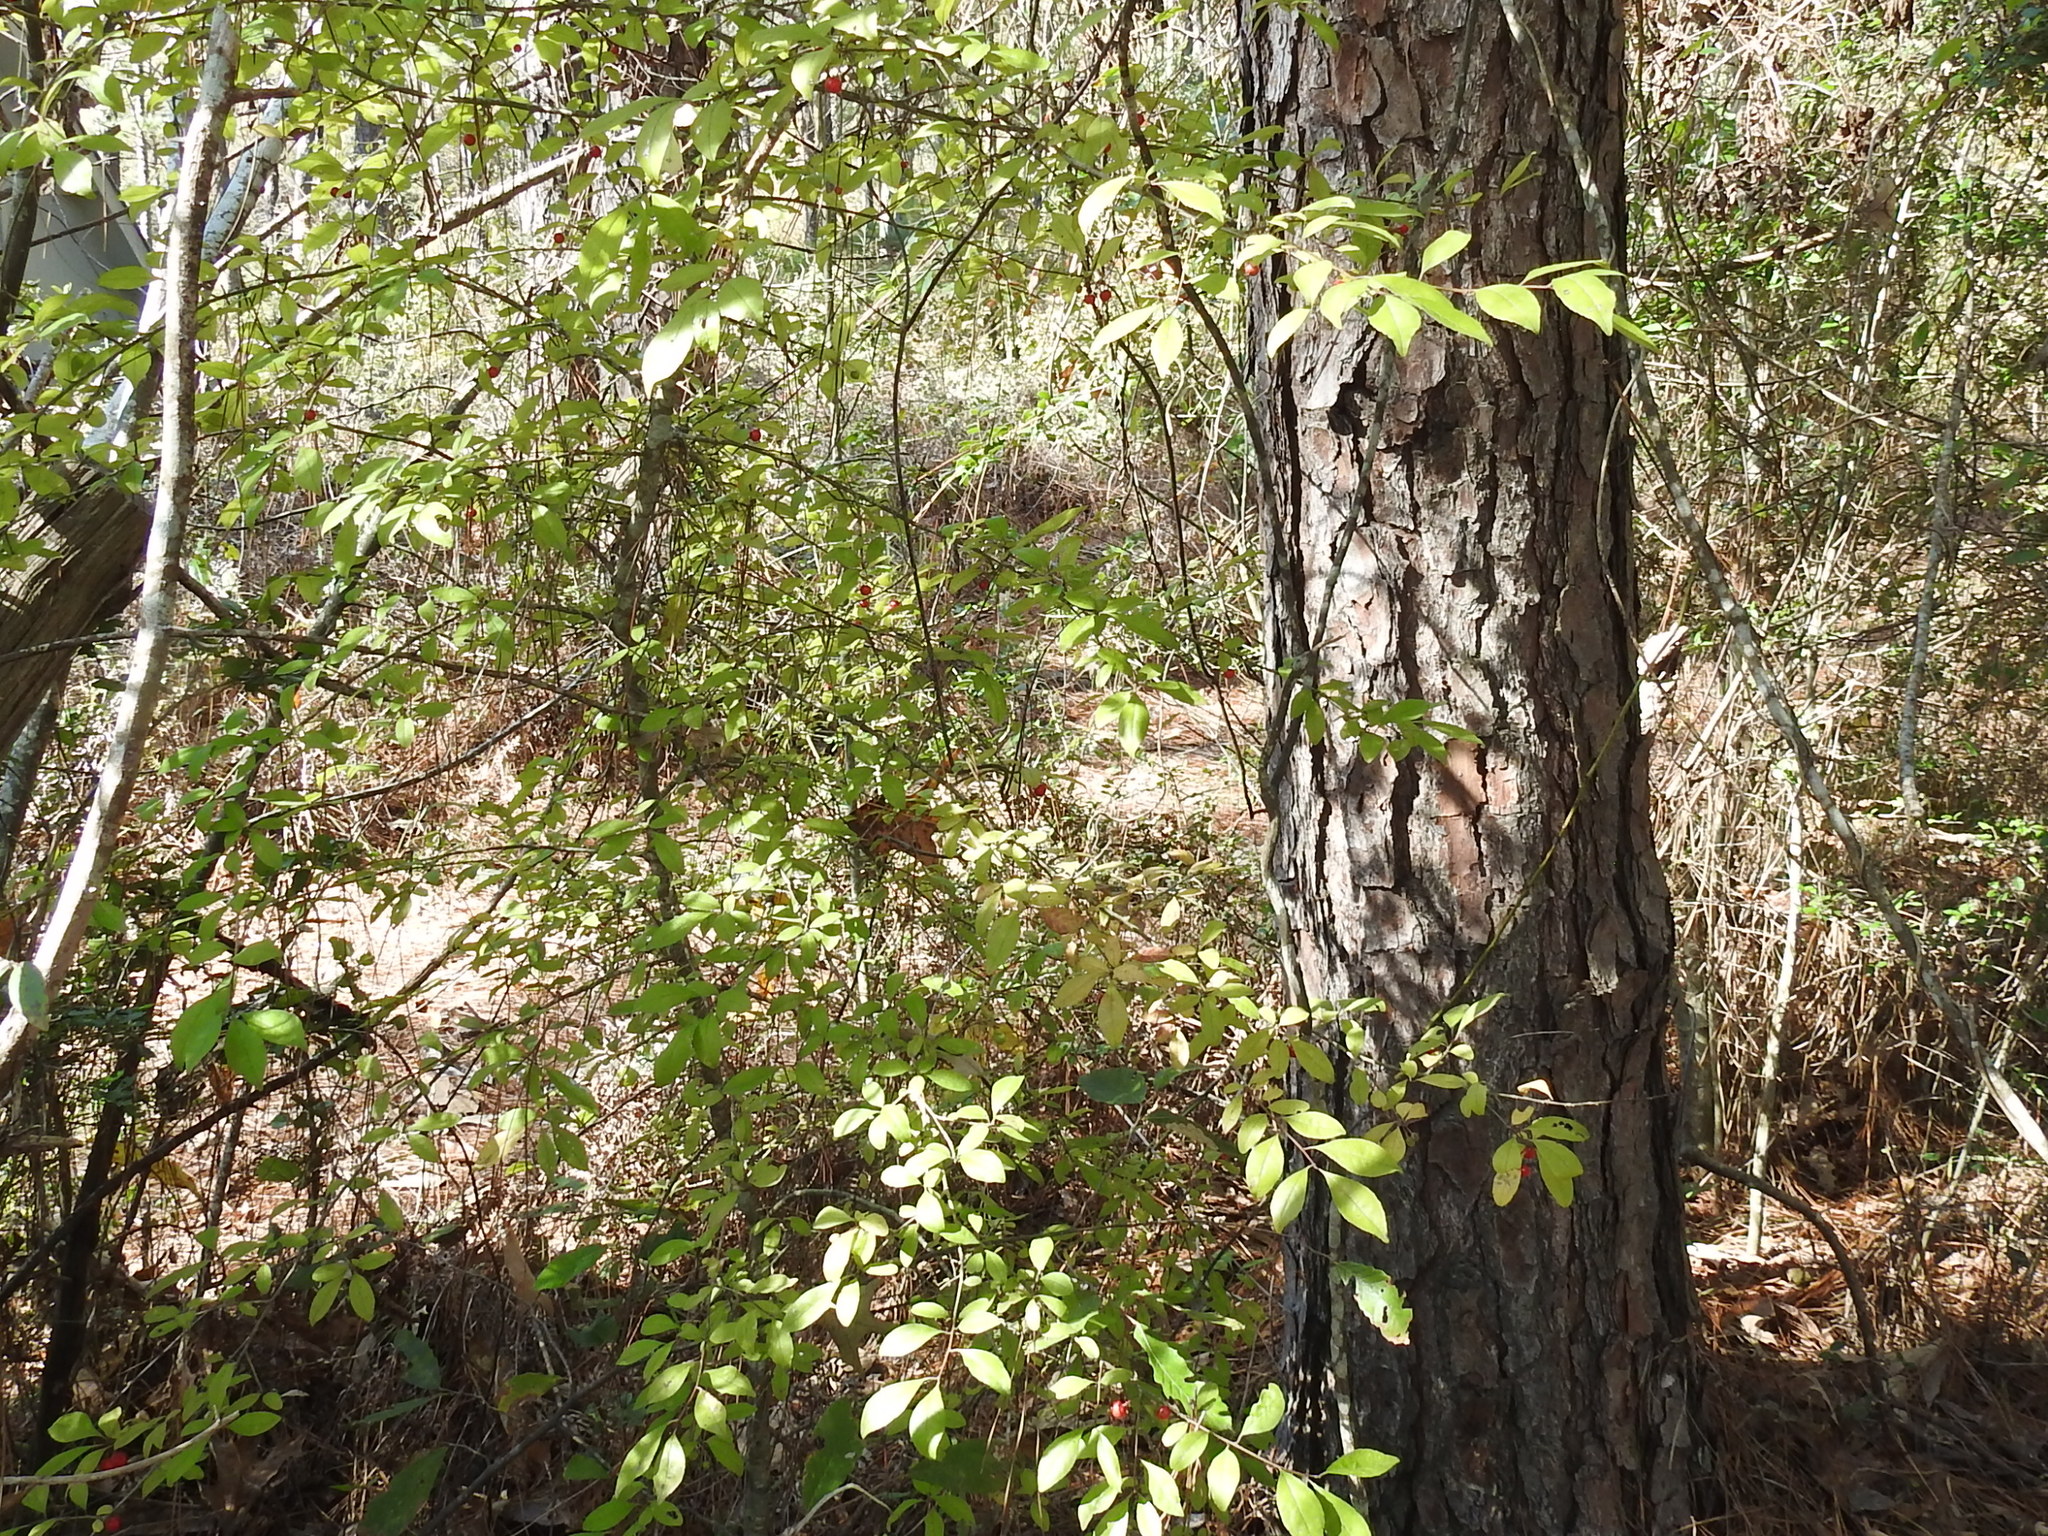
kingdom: Plantae
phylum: Tracheophyta
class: Magnoliopsida
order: Aquifoliales
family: Aquifoliaceae
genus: Ilex
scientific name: Ilex longipes
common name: Georgia holly
